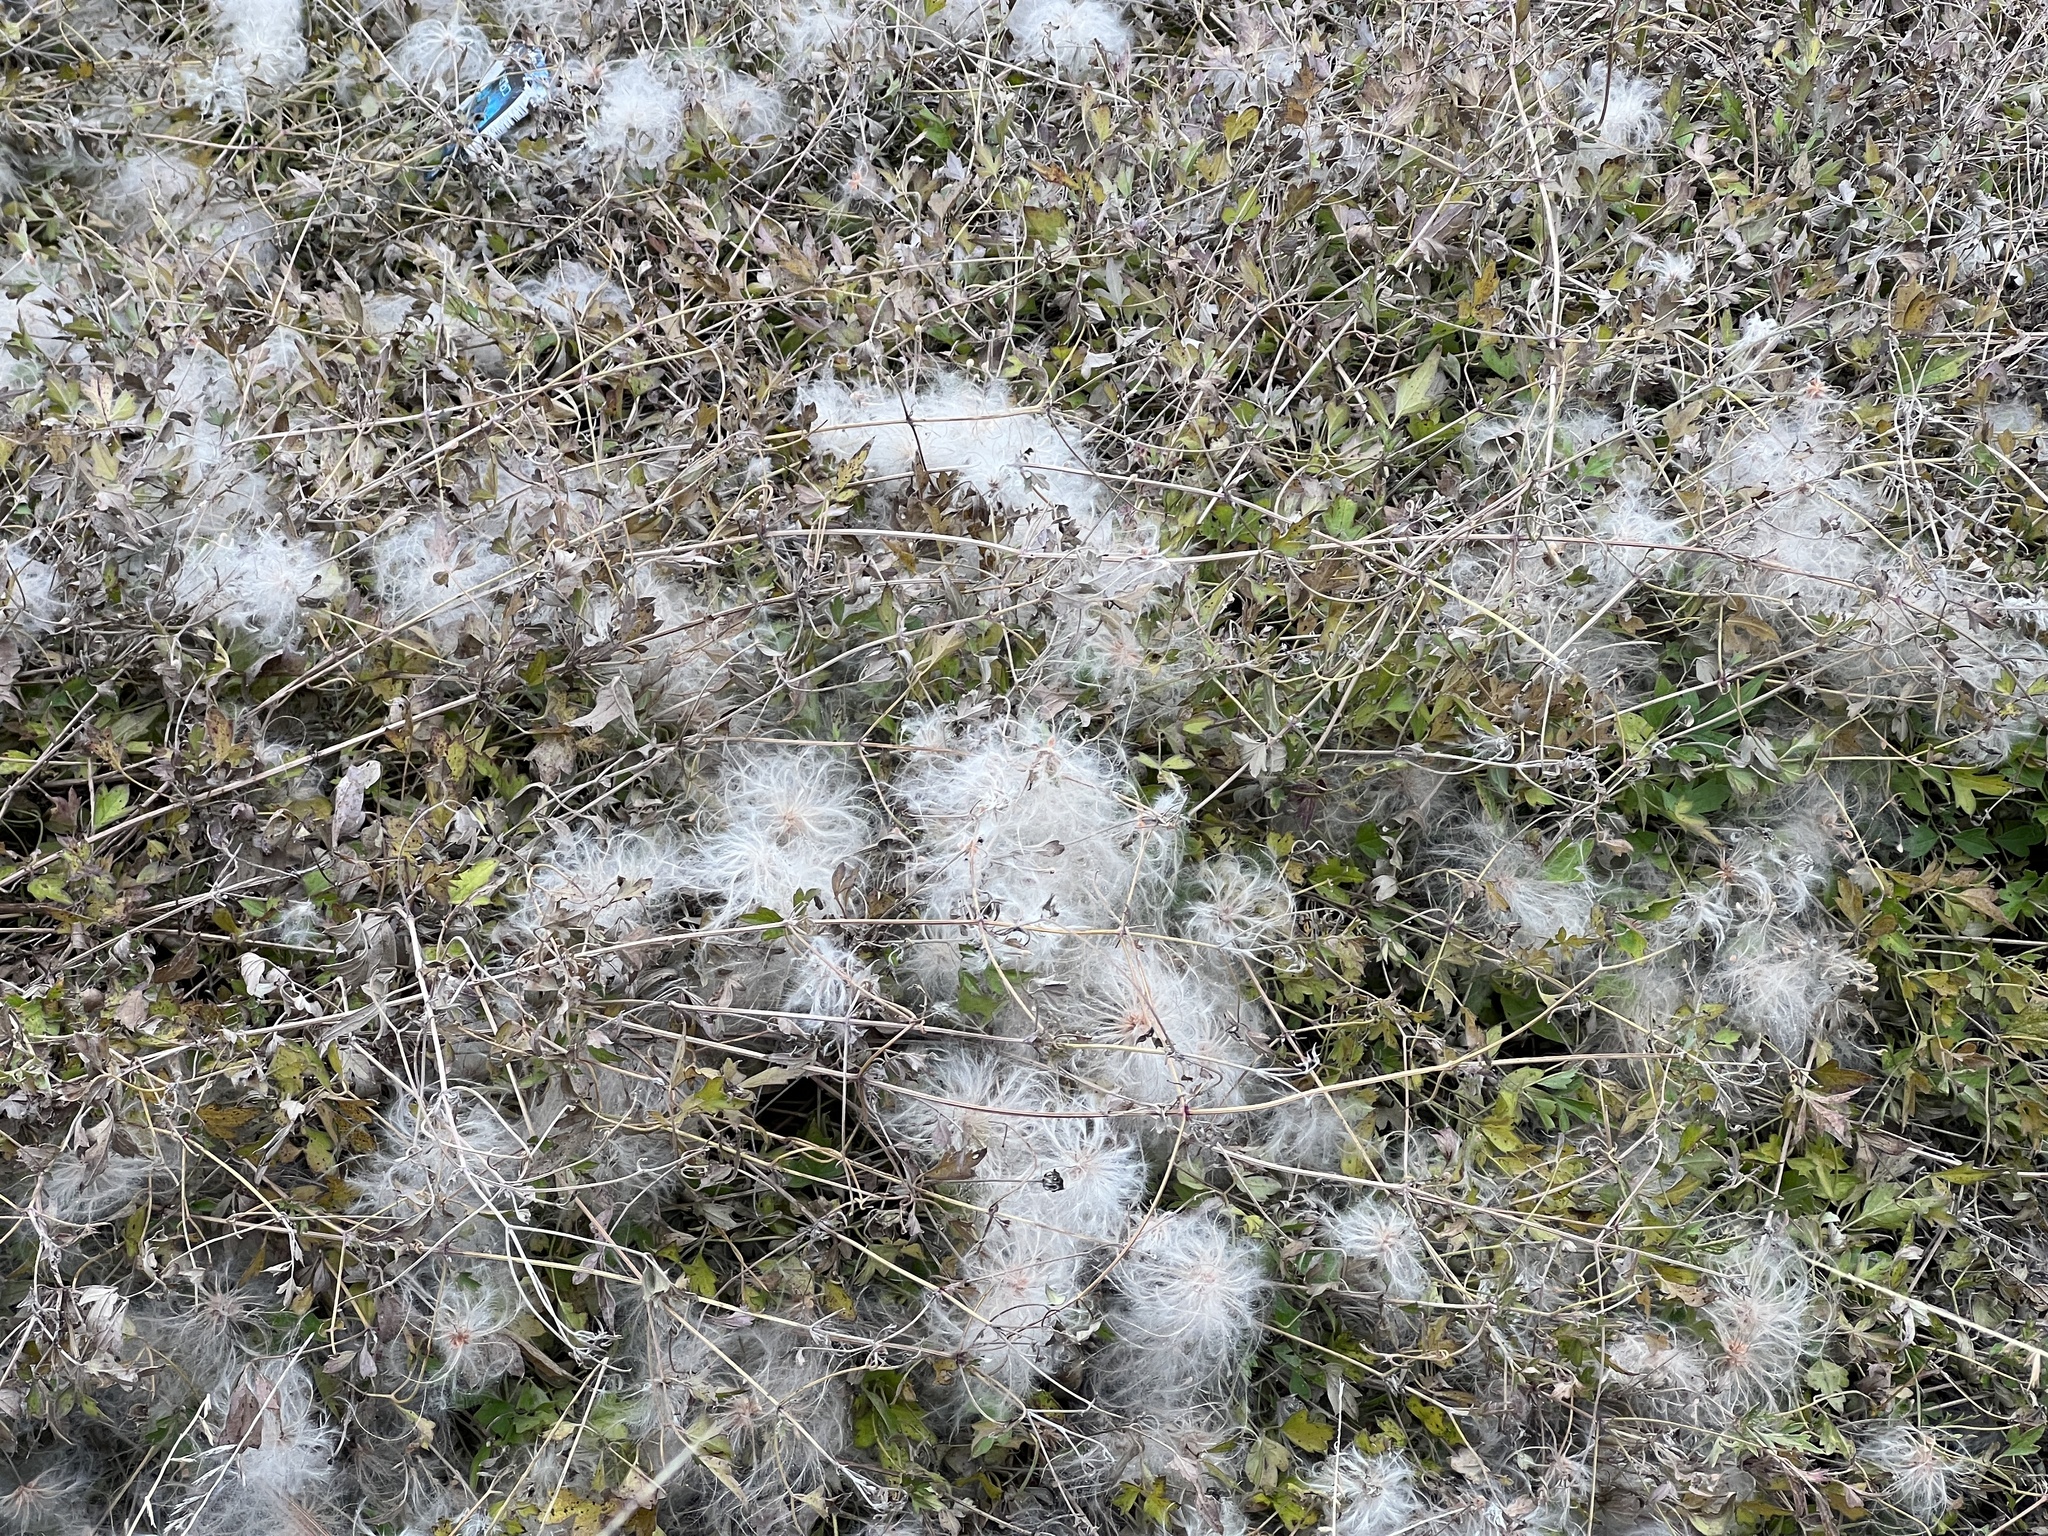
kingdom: Plantae
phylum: Tracheophyta
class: Magnoliopsida
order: Ranunculales
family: Ranunculaceae
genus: Clematis
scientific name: Clematis drummondii
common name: Texas virgin's bower
